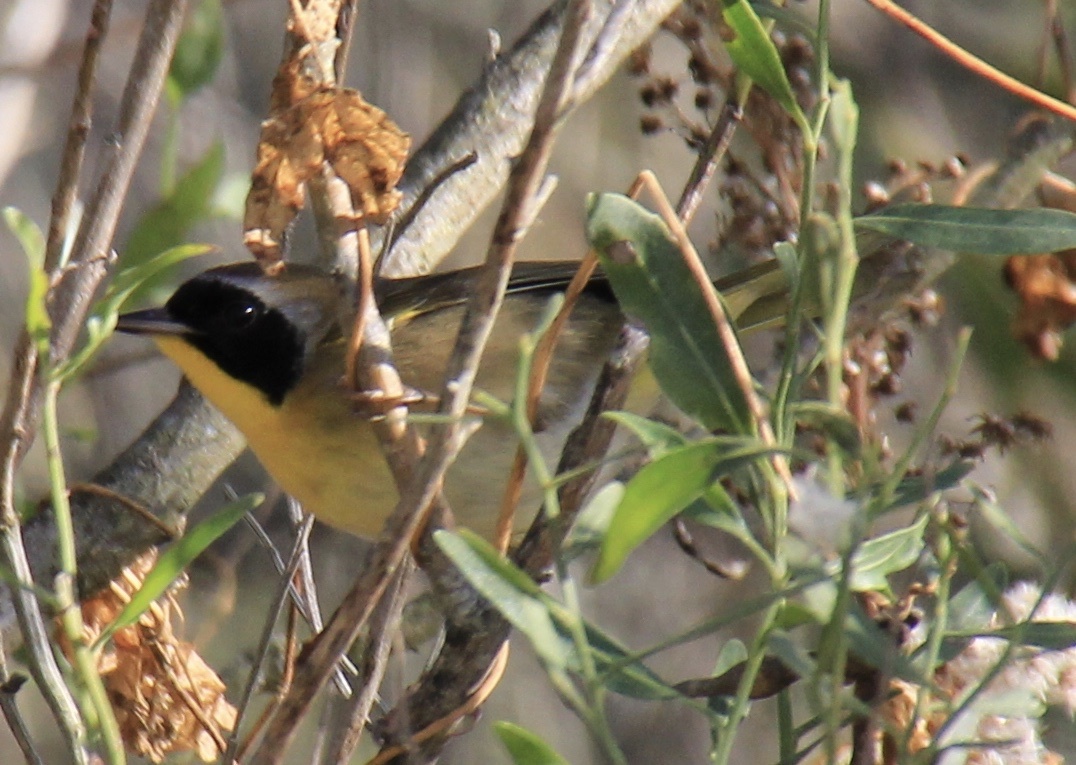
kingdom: Animalia
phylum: Chordata
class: Aves
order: Passeriformes
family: Parulidae
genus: Geothlypis
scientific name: Geothlypis trichas
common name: Common yellowthroat
